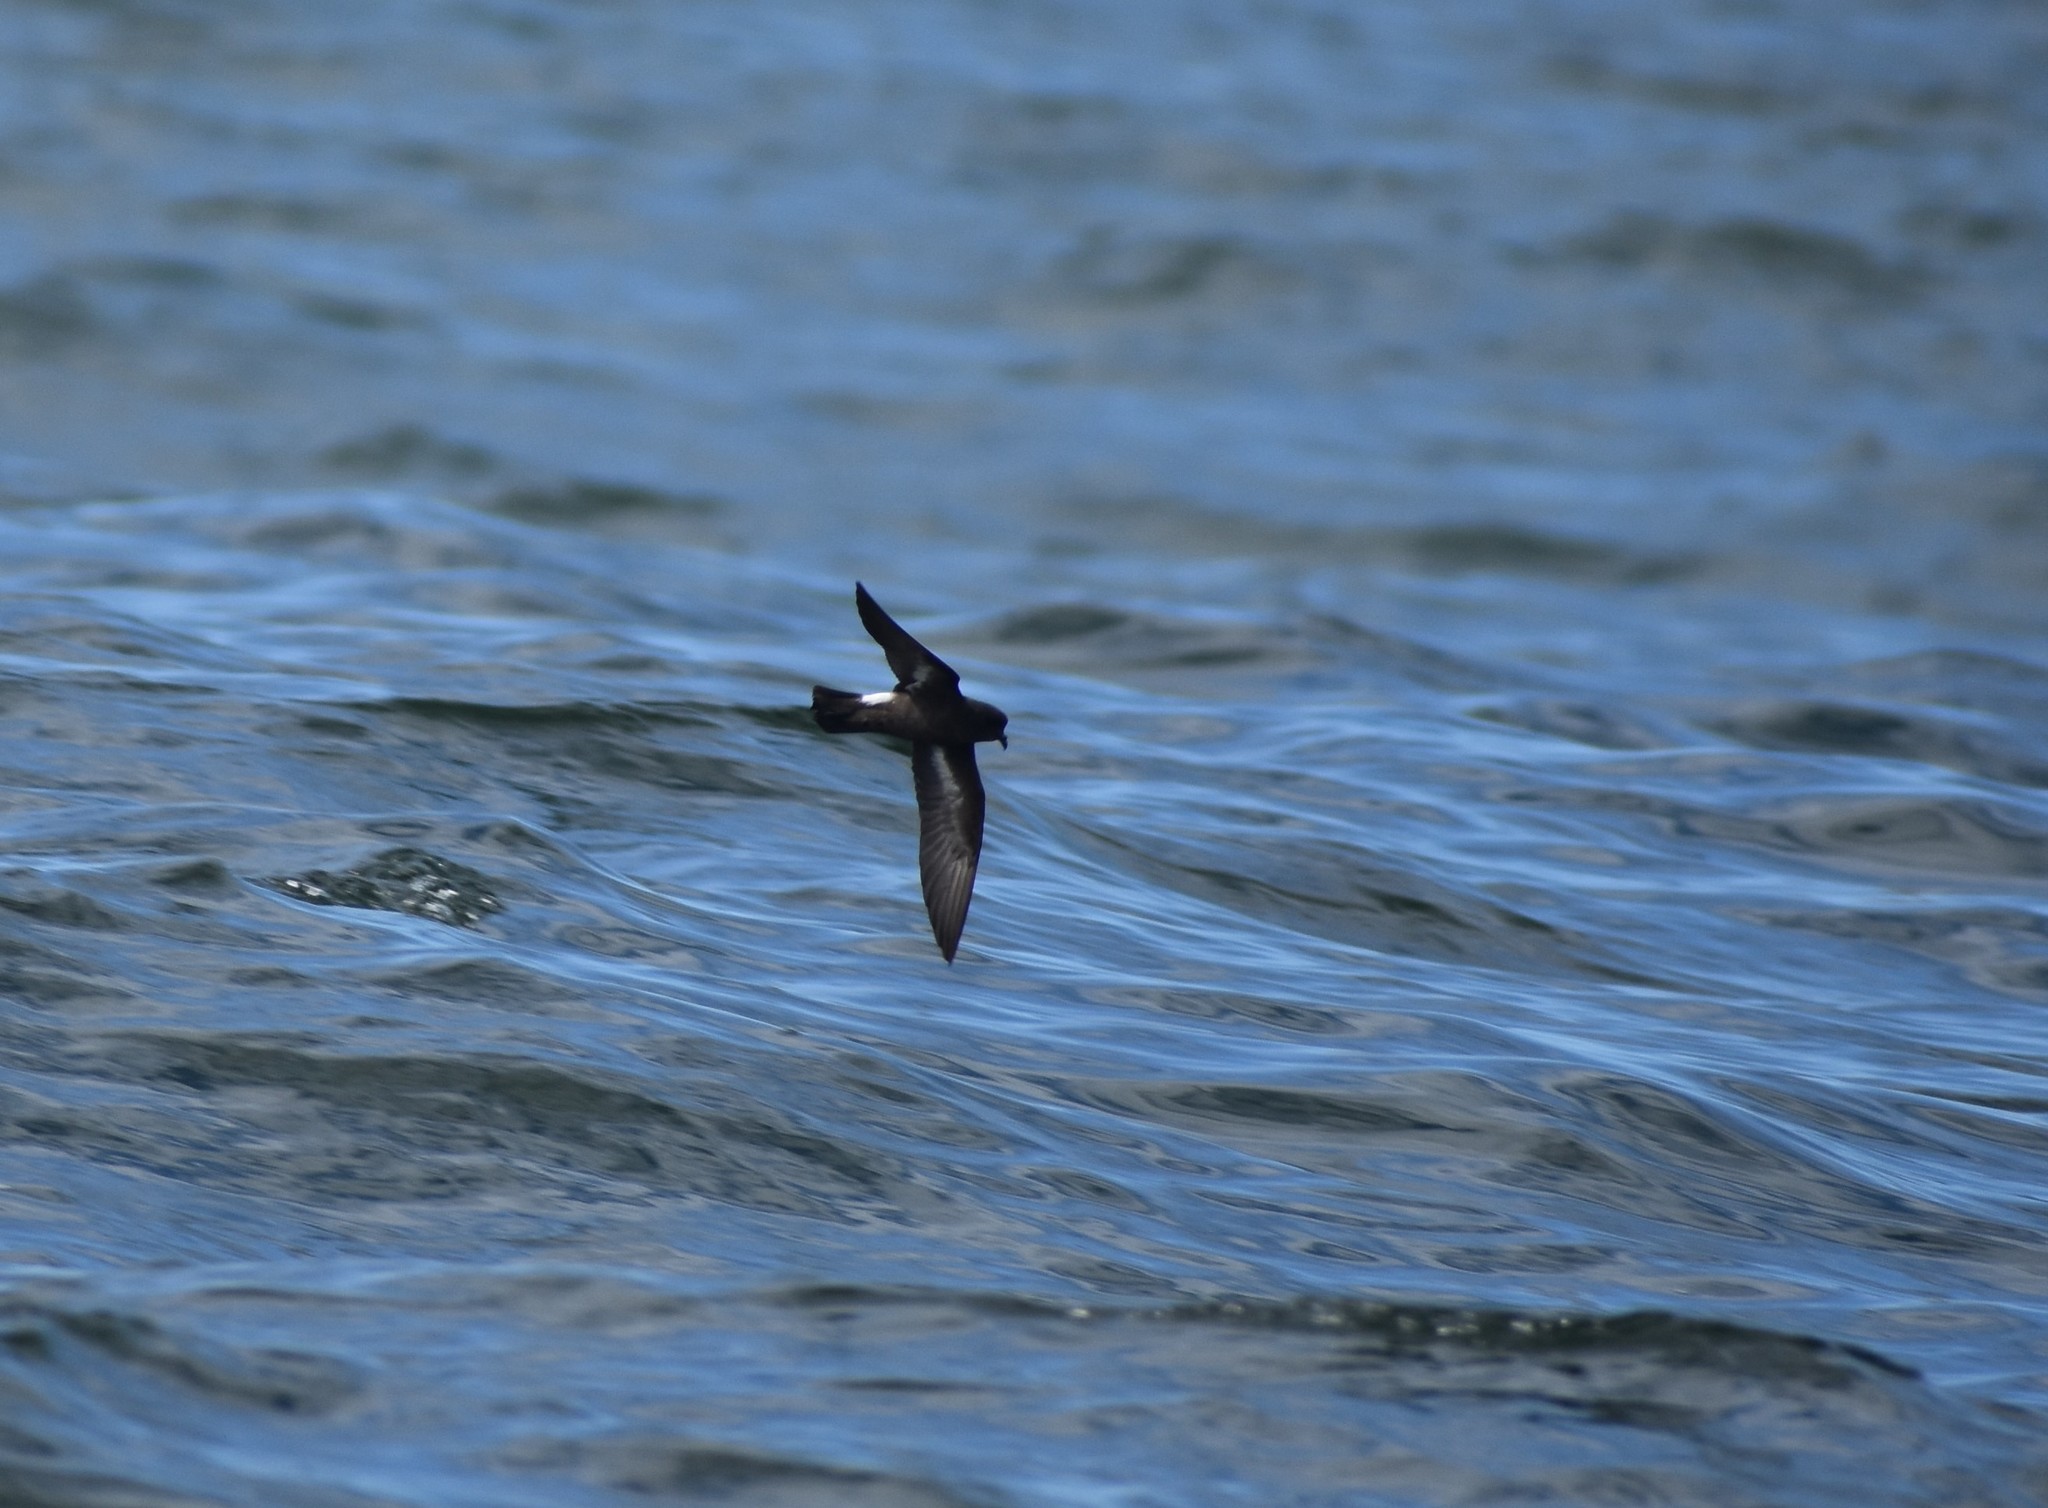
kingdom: Animalia
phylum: Chordata
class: Aves
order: Procellariiformes
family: Hydrobatidae
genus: Hydrobates
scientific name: Hydrobates pelagicus
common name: European storm-petrel
